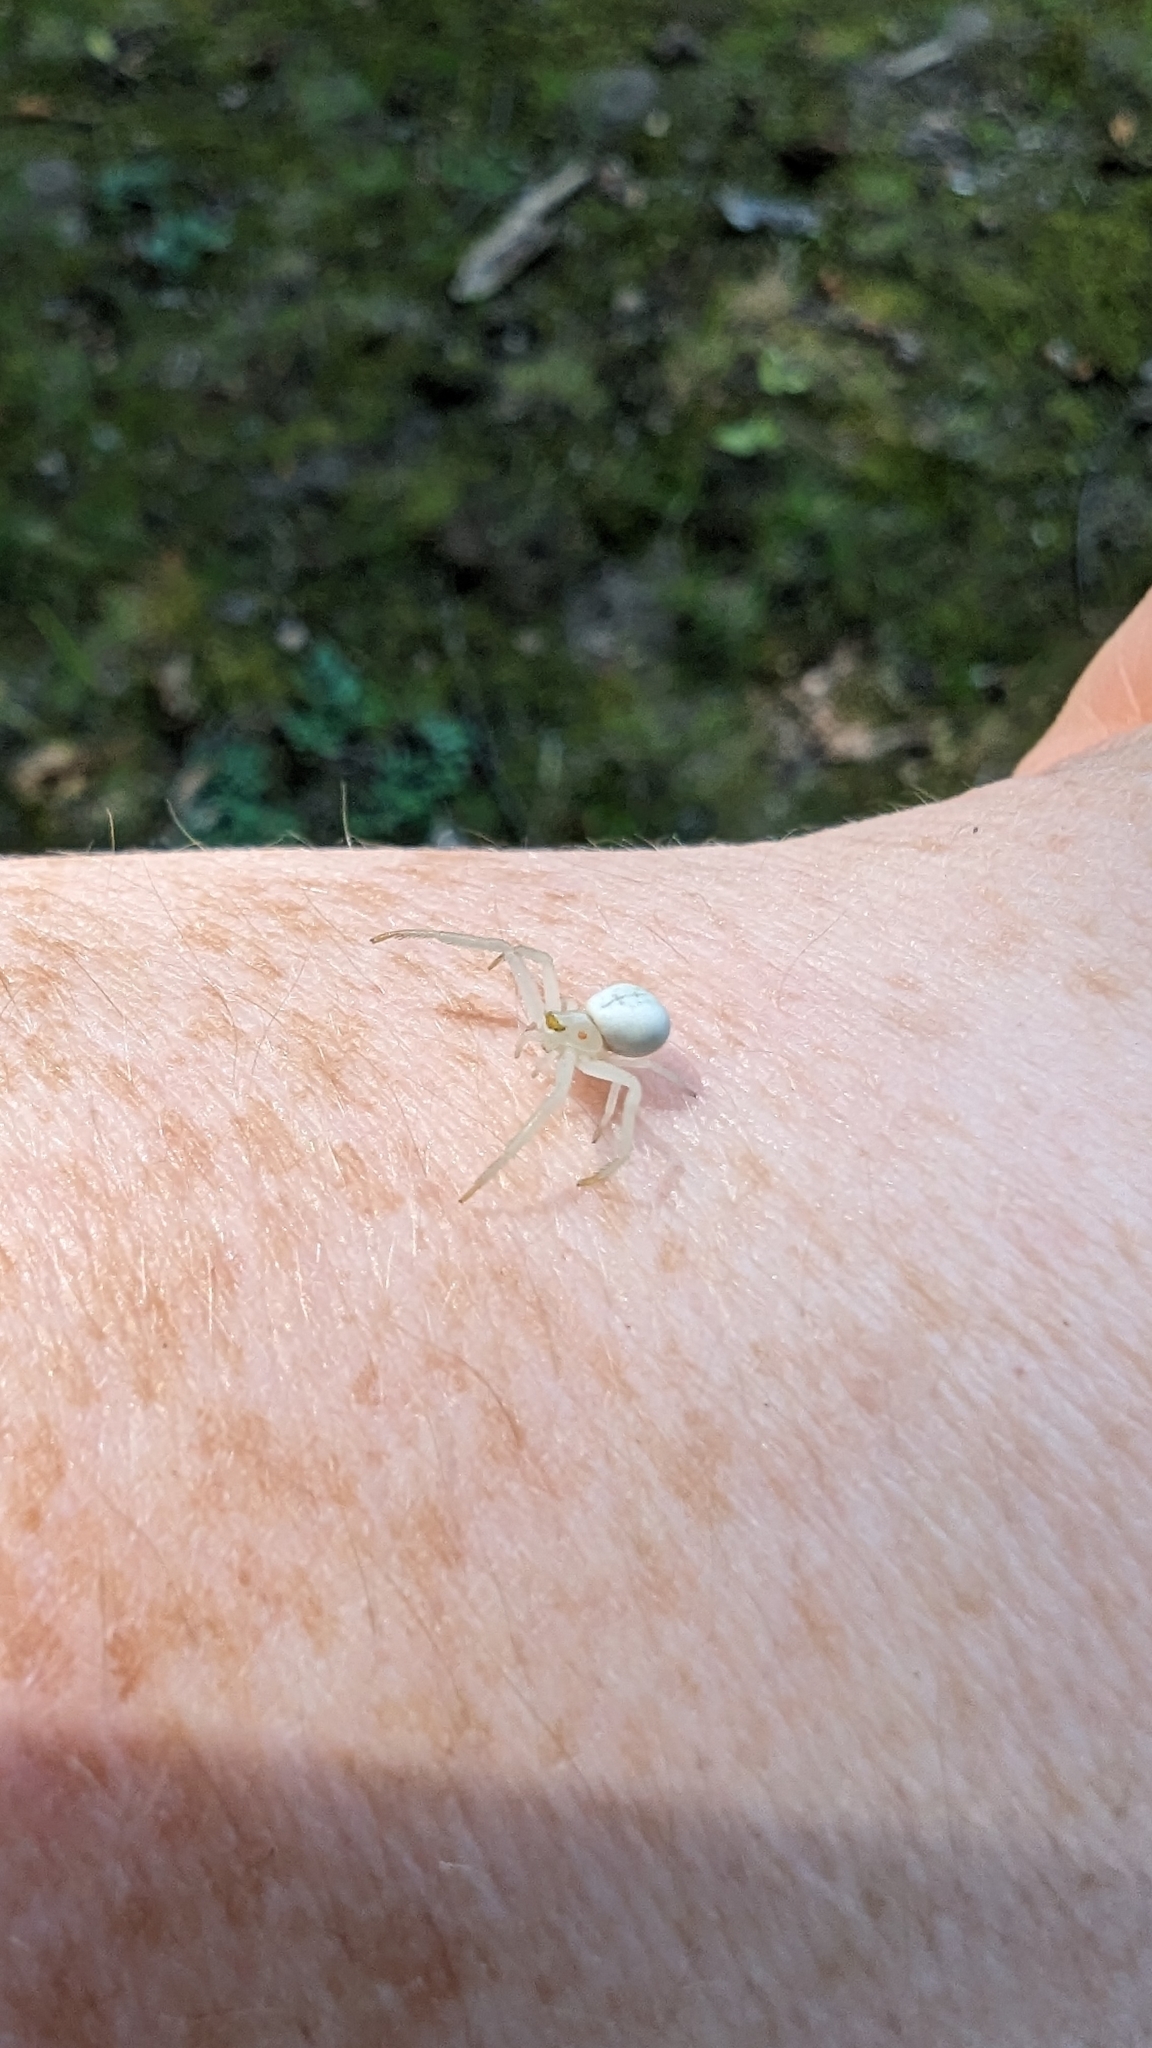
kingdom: Animalia
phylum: Arthropoda
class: Arachnida
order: Araneae
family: Thomisidae
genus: Misumena
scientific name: Misumena vatia
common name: Goldenrod crab spider
